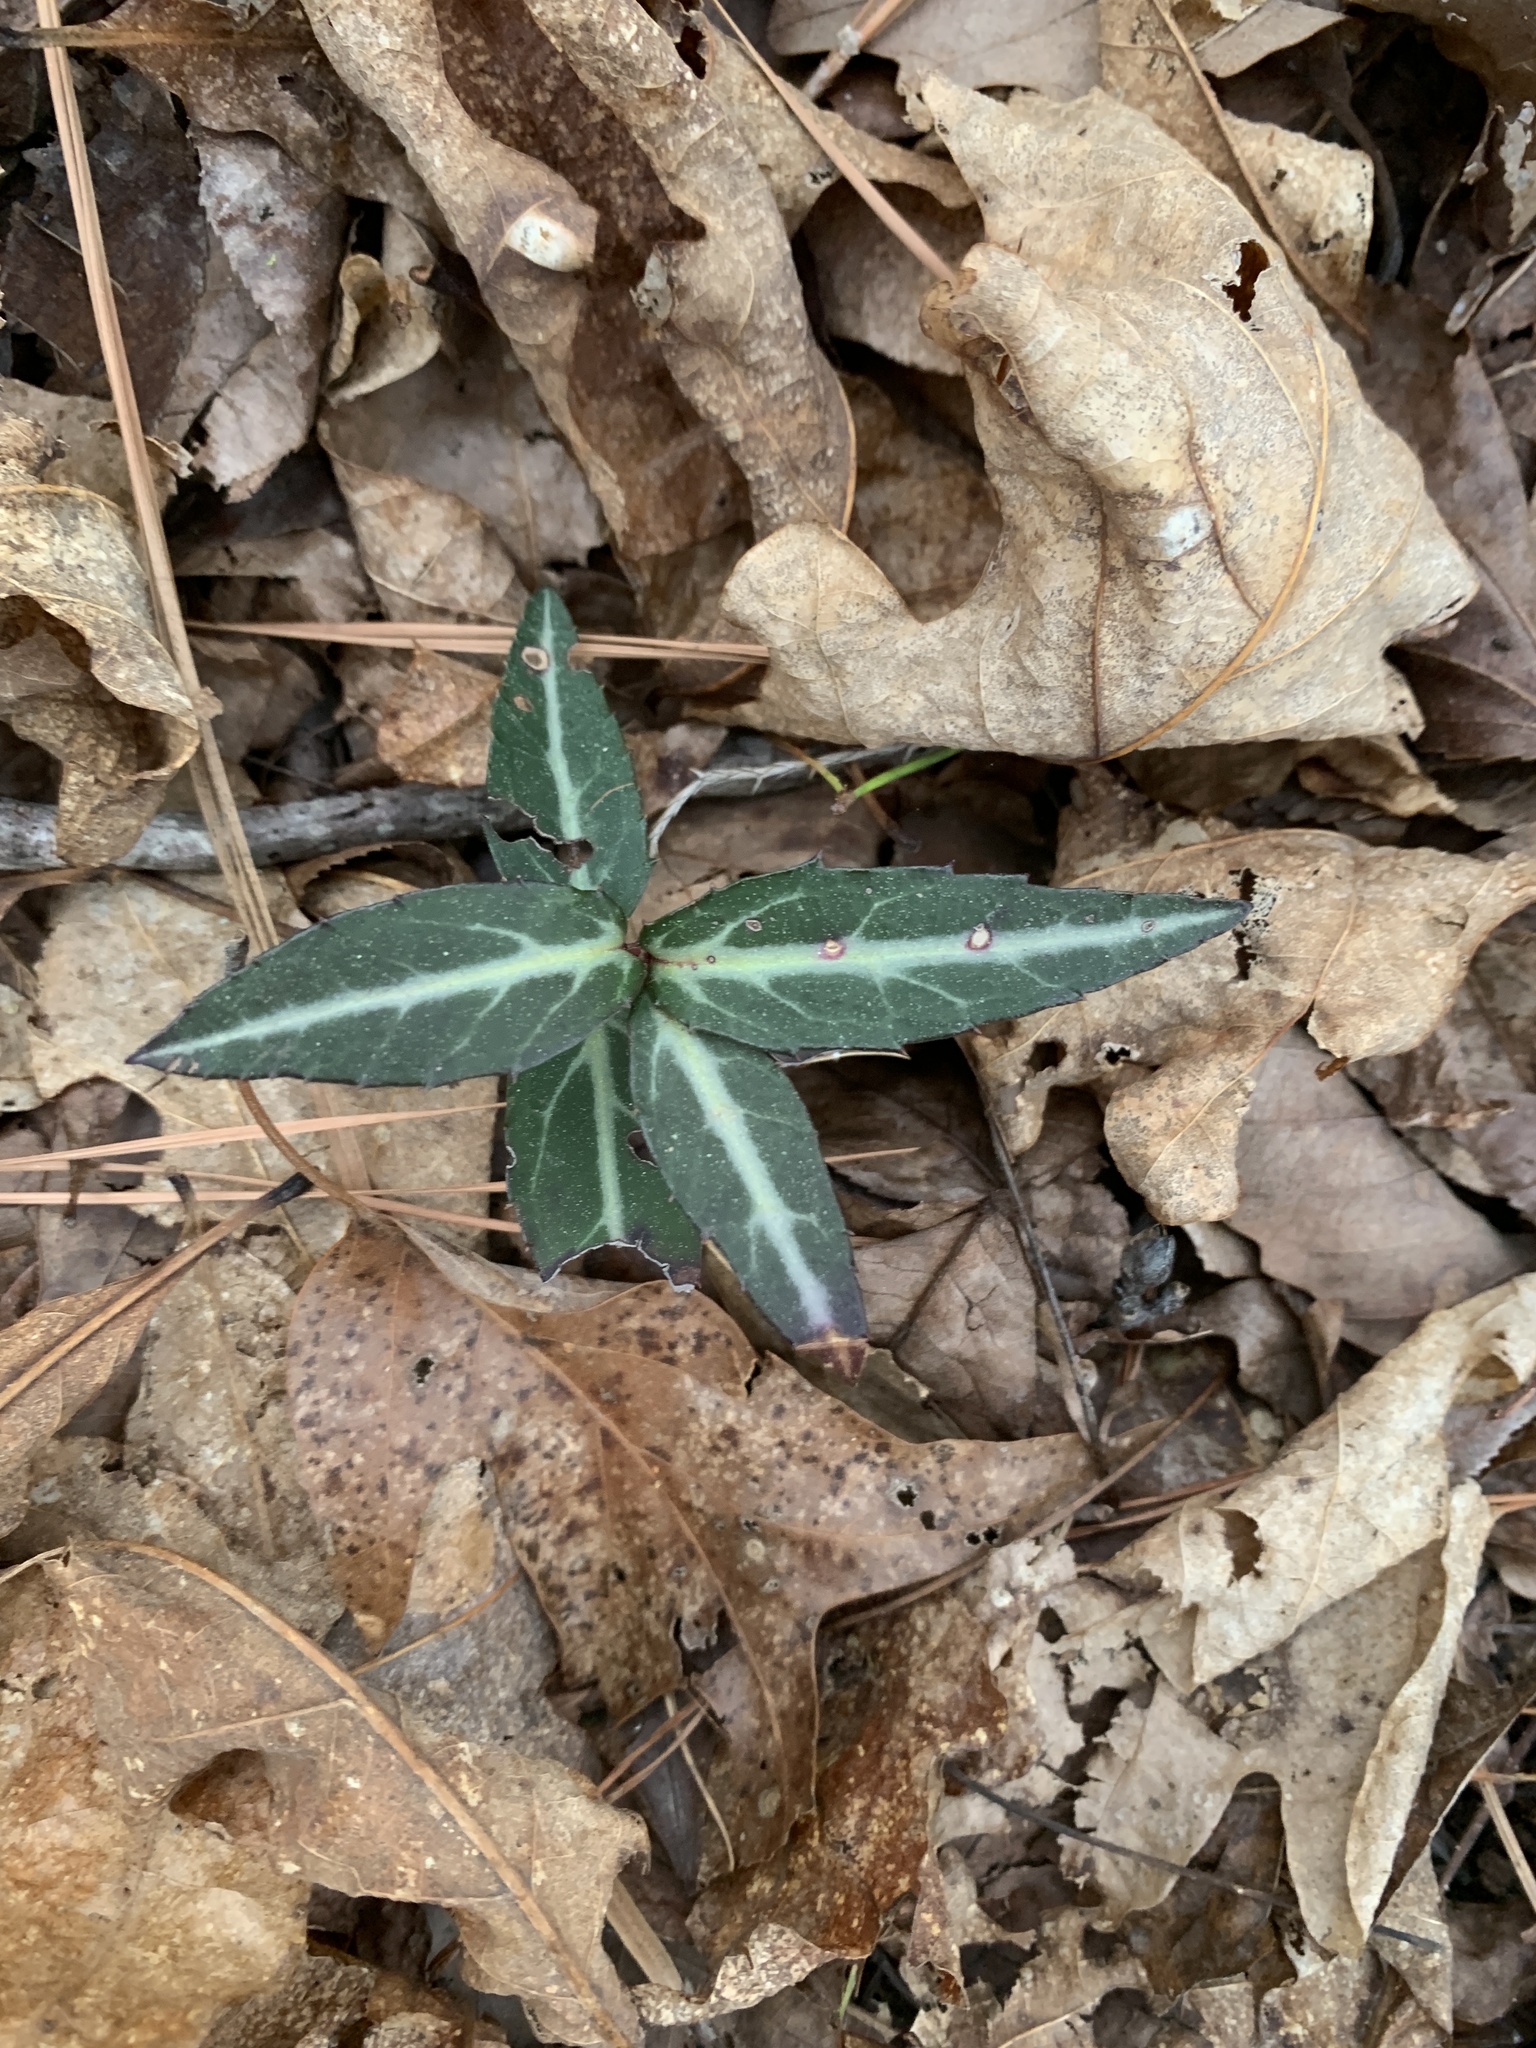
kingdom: Plantae
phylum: Tracheophyta
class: Magnoliopsida
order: Ericales
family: Ericaceae
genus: Chimaphila
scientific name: Chimaphila maculata
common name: Spotted pipsissewa
